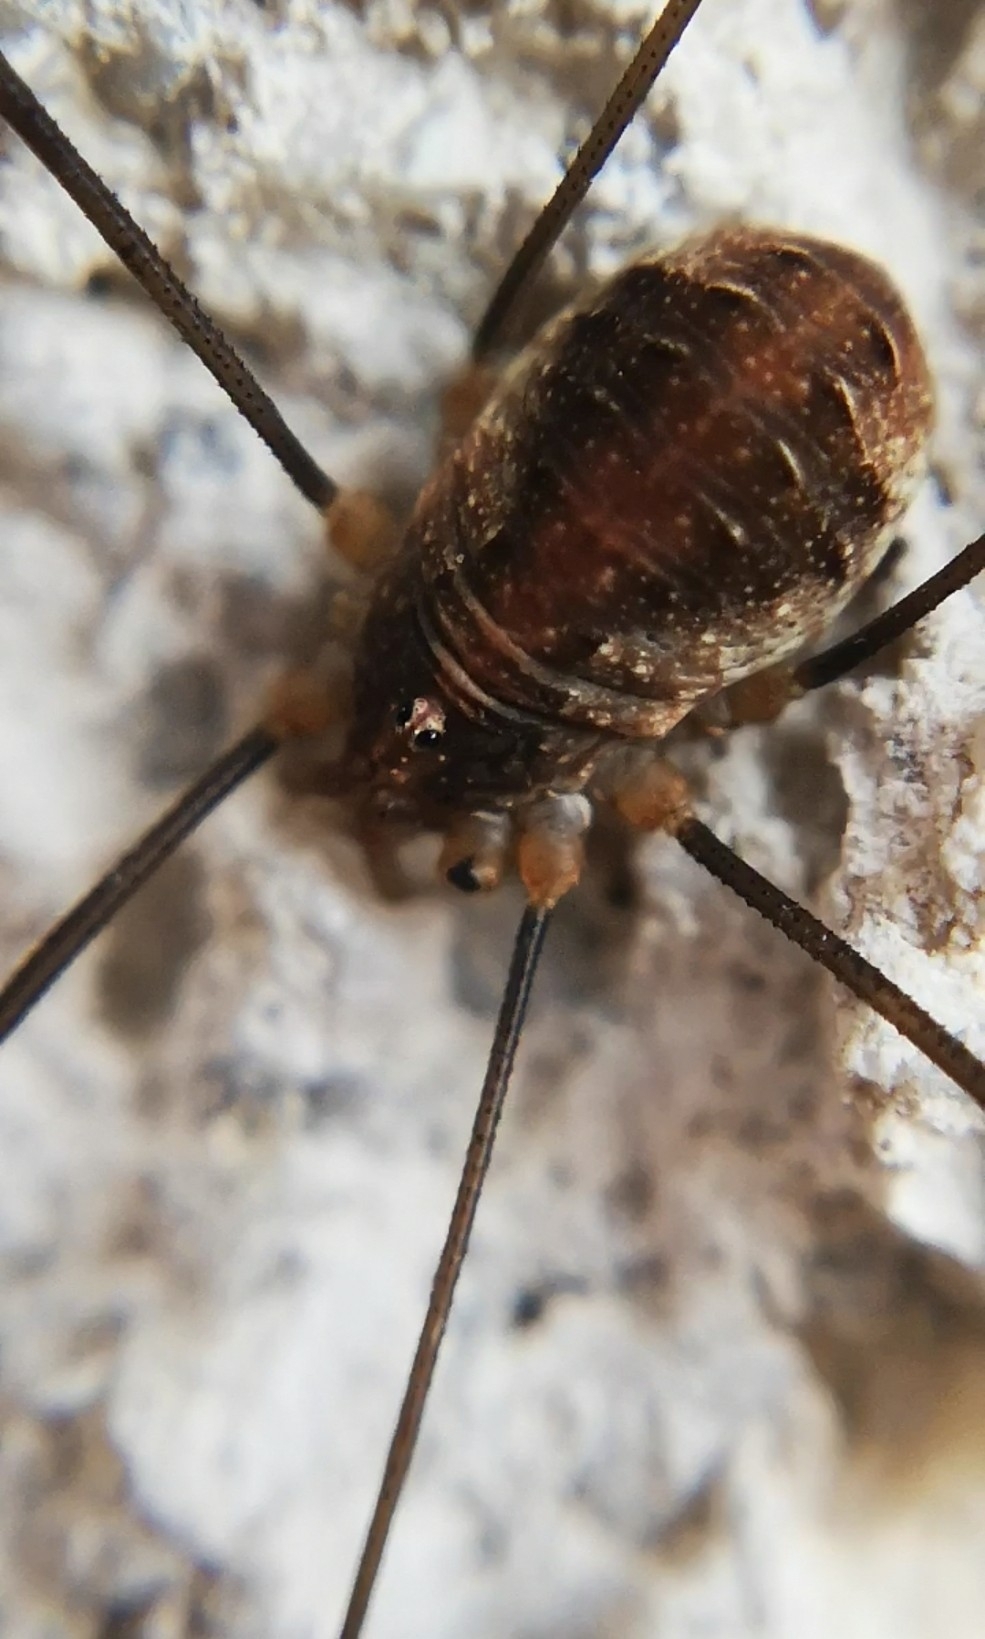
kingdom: Animalia
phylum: Arthropoda
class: Arachnida
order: Opiliones
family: Phalangiidae
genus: Opilio
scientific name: Opilio canestrinii
